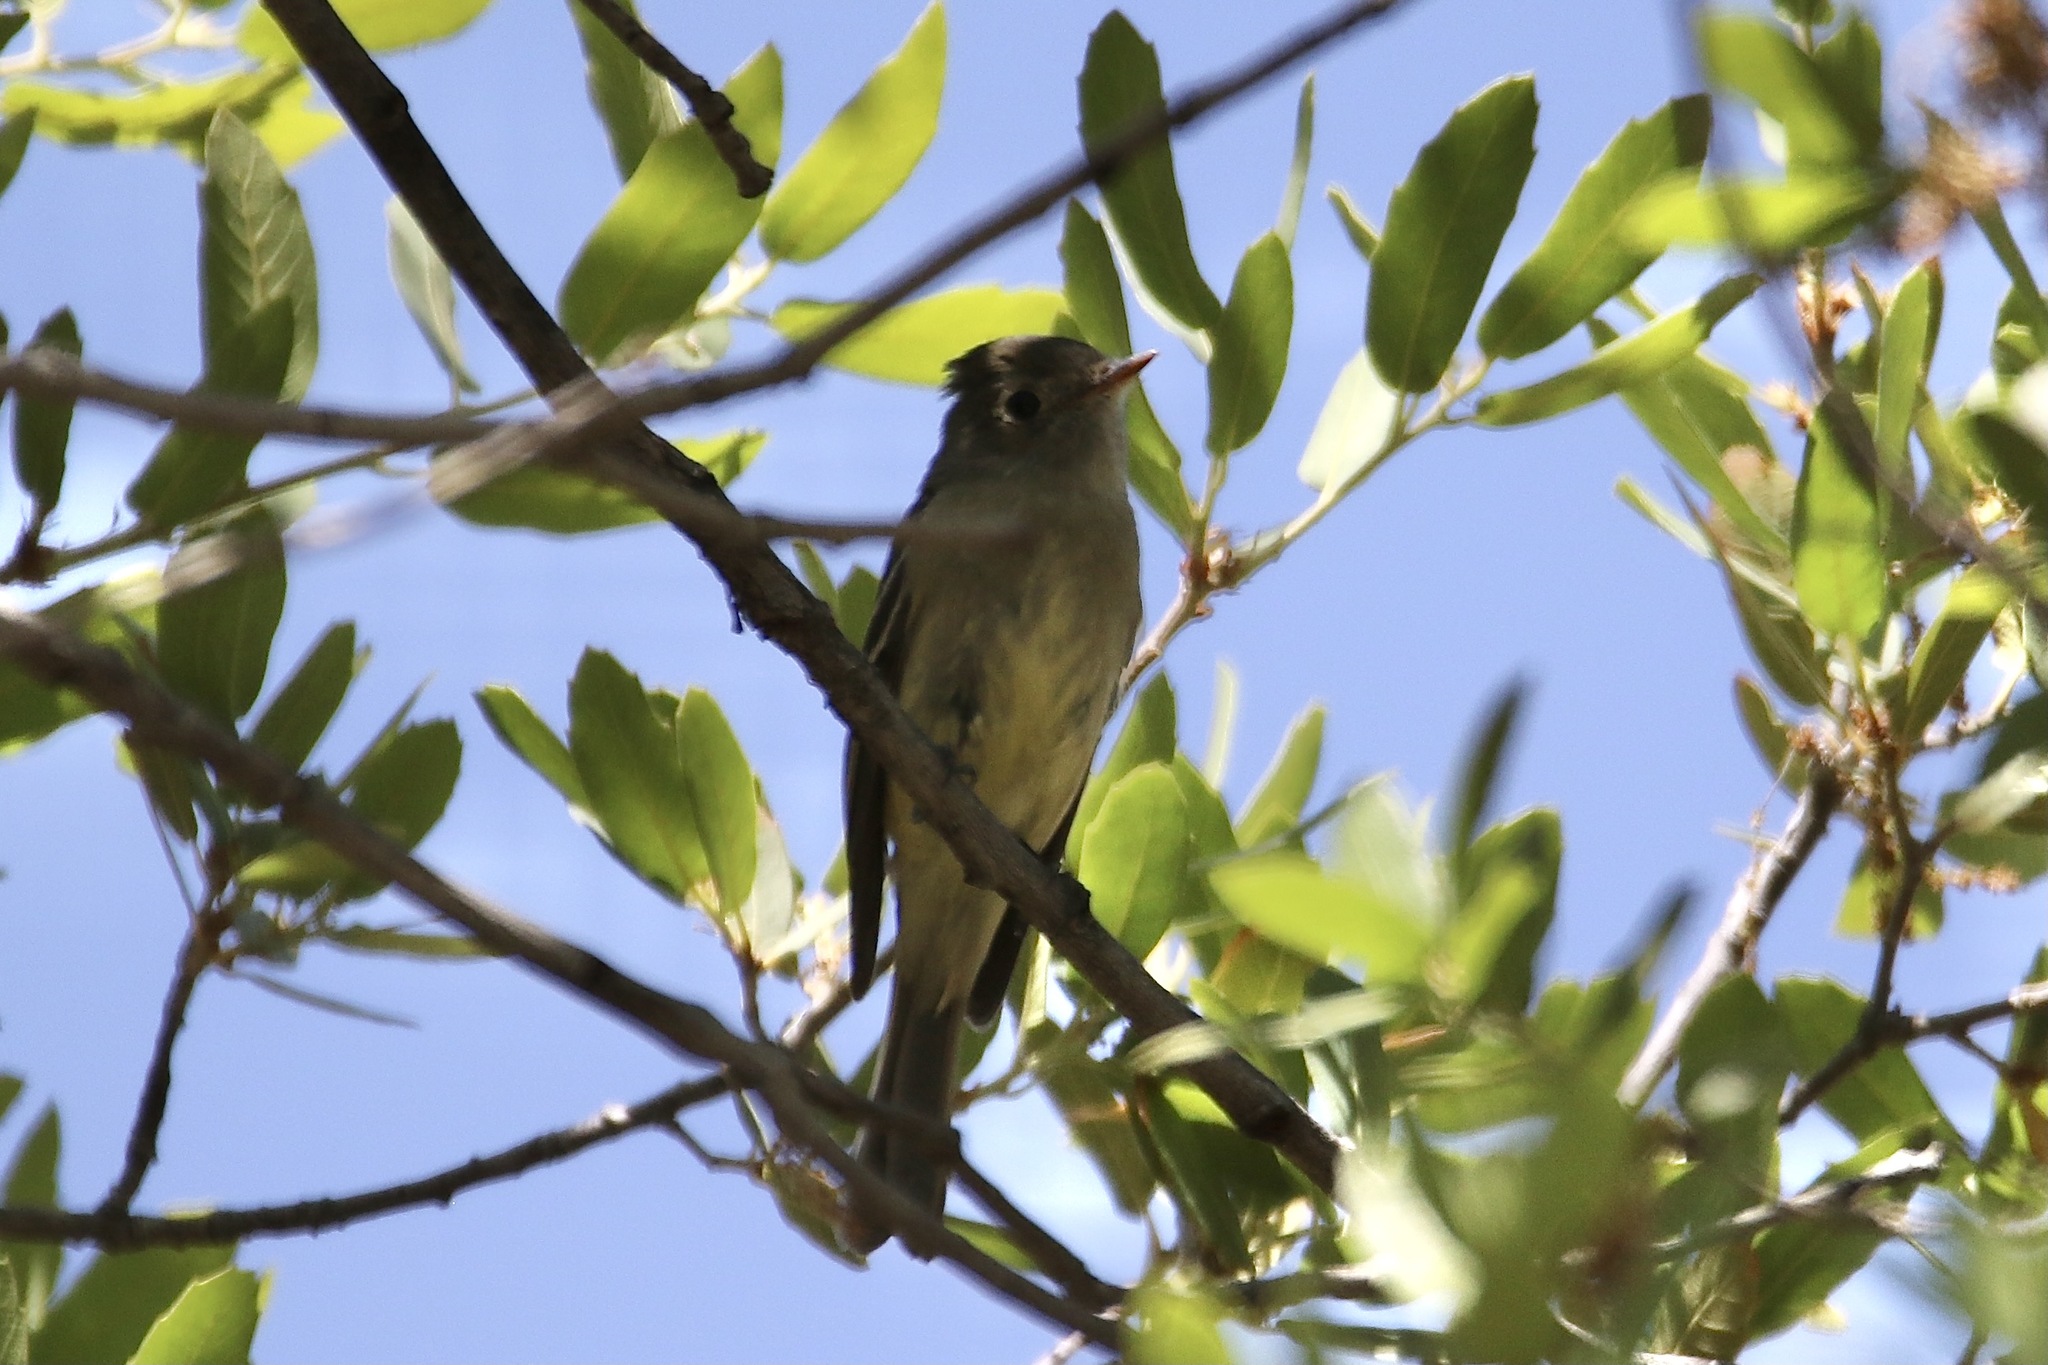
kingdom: Animalia
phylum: Chordata
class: Aves
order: Passeriformes
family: Tyrannidae
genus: Empidonax
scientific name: Empidonax hammondii
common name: Hammond's flycatcher
